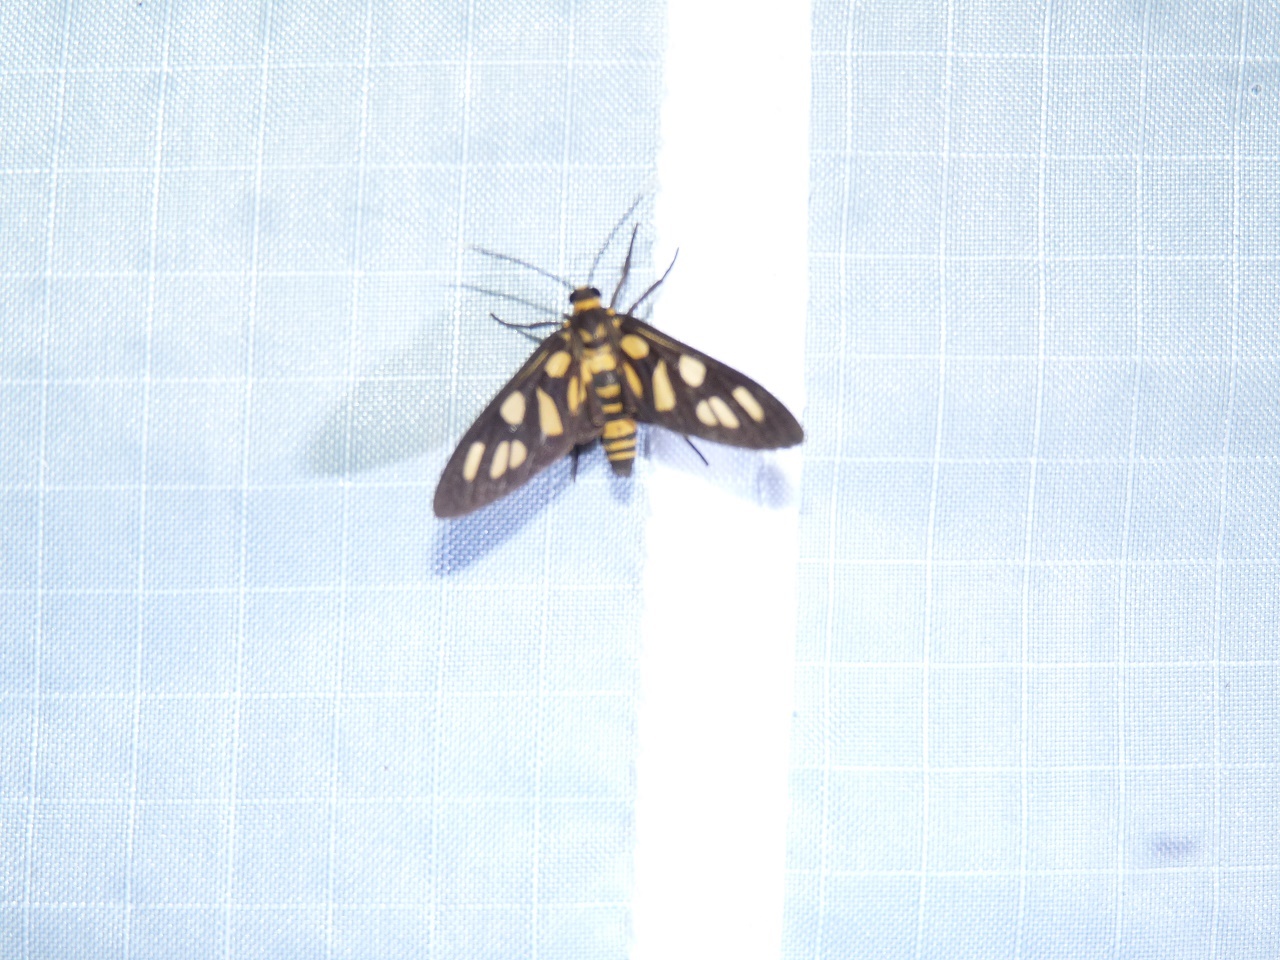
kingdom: Animalia
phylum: Arthropoda
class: Insecta
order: Lepidoptera
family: Erebidae
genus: Amata
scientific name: Amata borneogena
